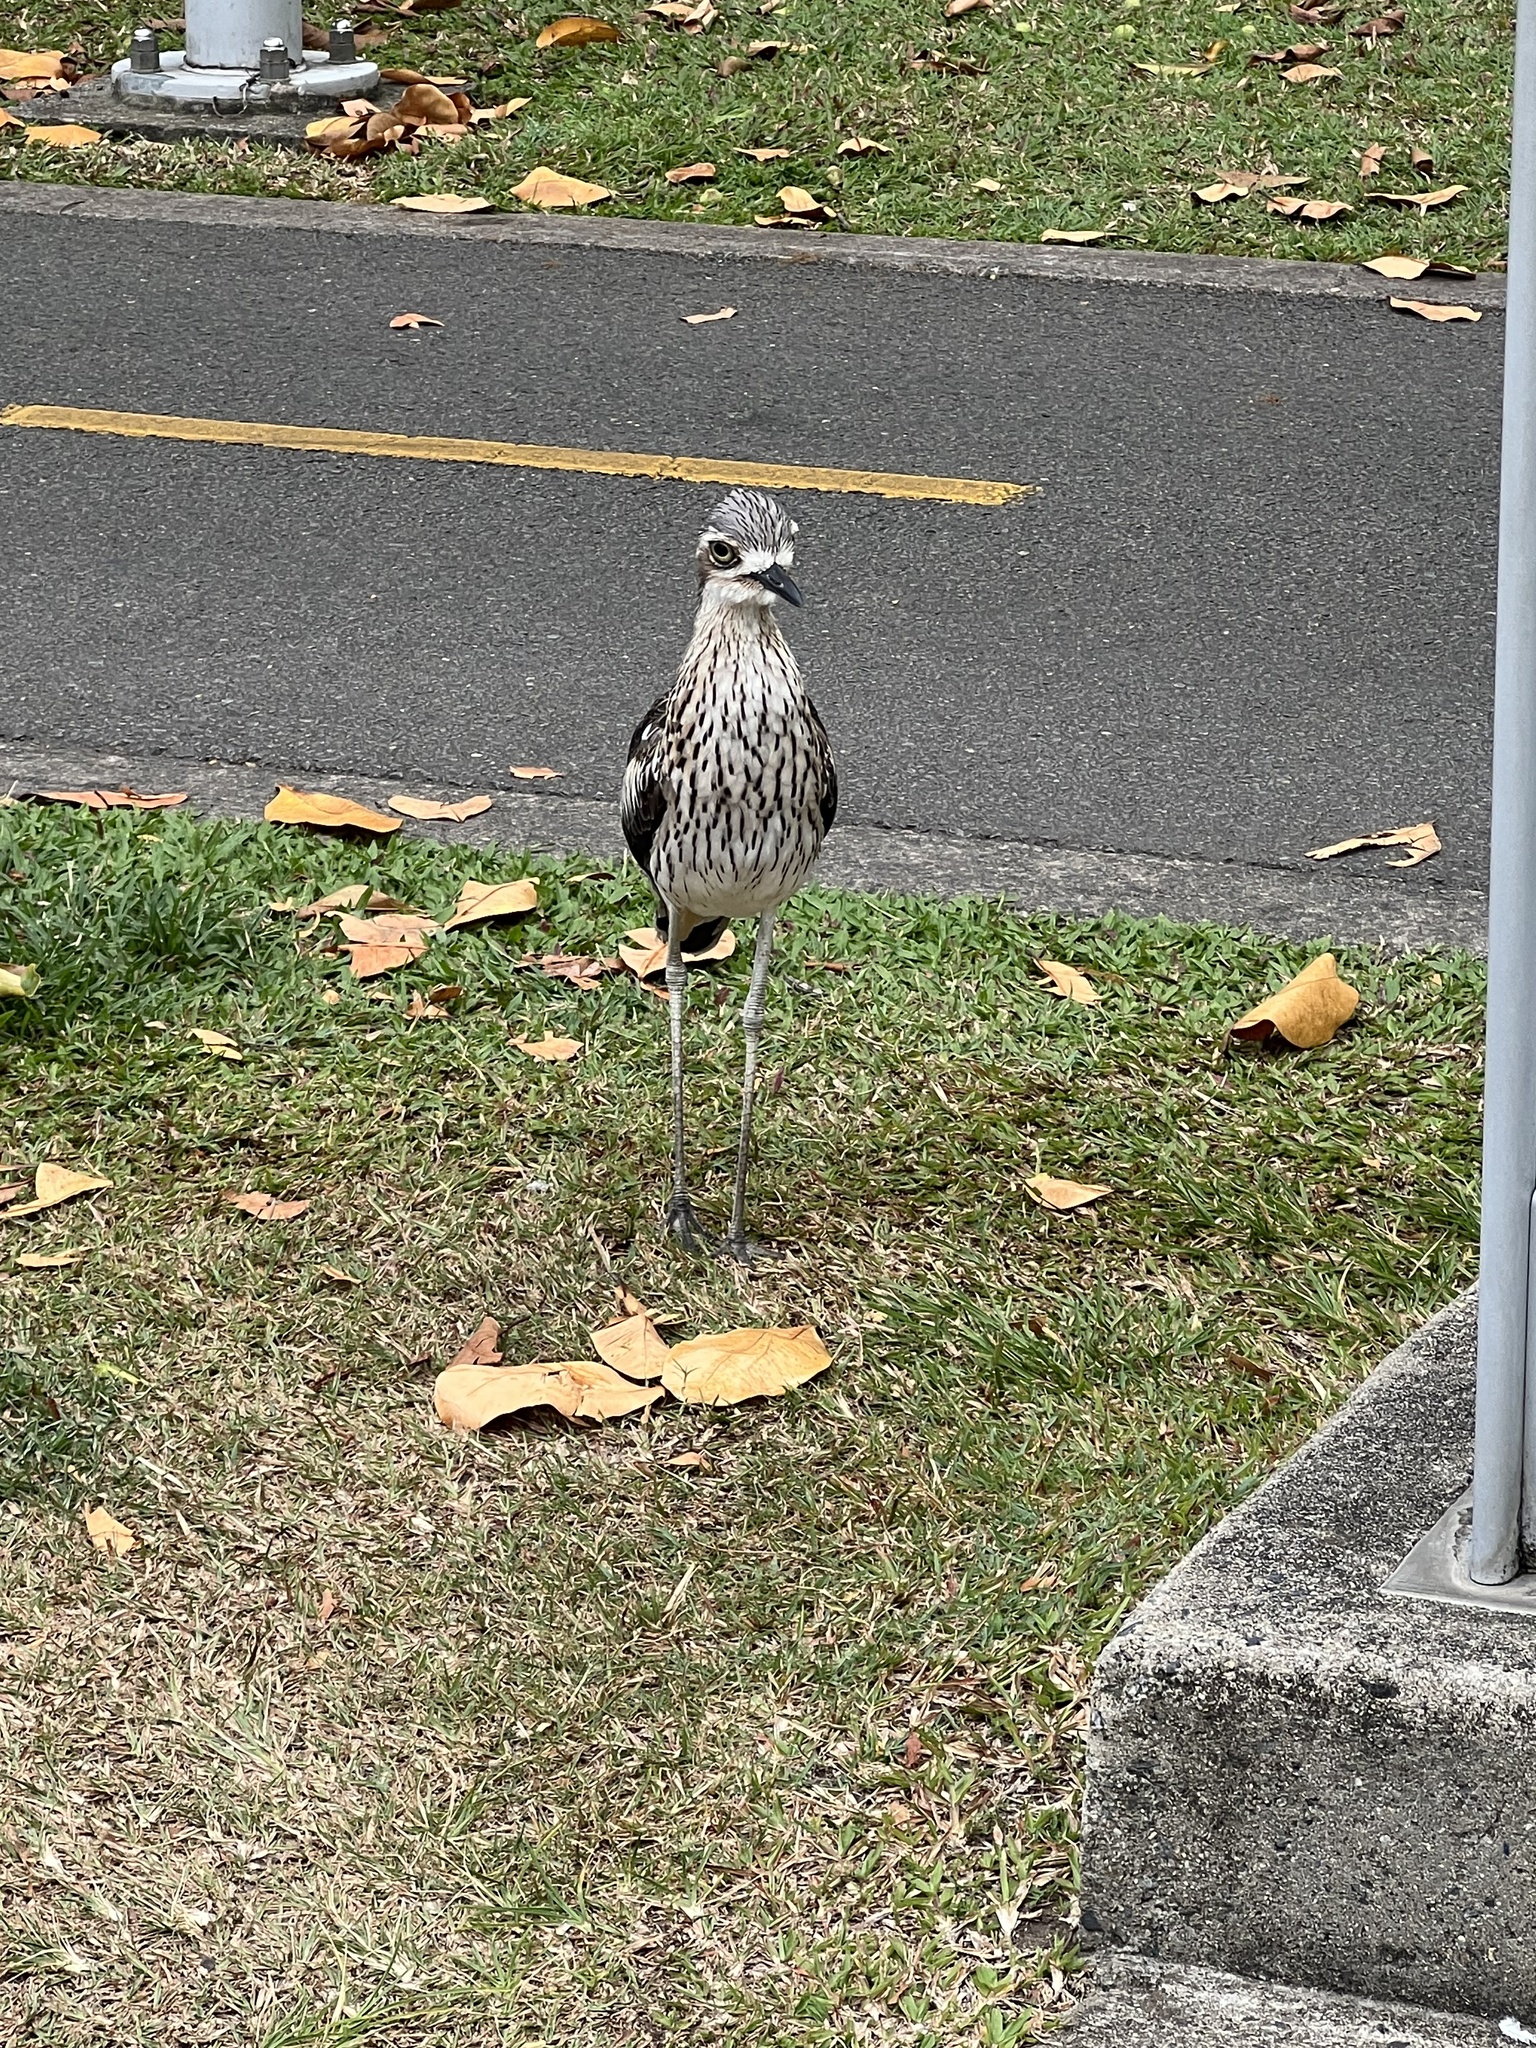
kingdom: Animalia
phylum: Chordata
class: Aves
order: Charadriiformes
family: Burhinidae
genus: Burhinus
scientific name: Burhinus grallarius
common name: Bush stone-curlew
